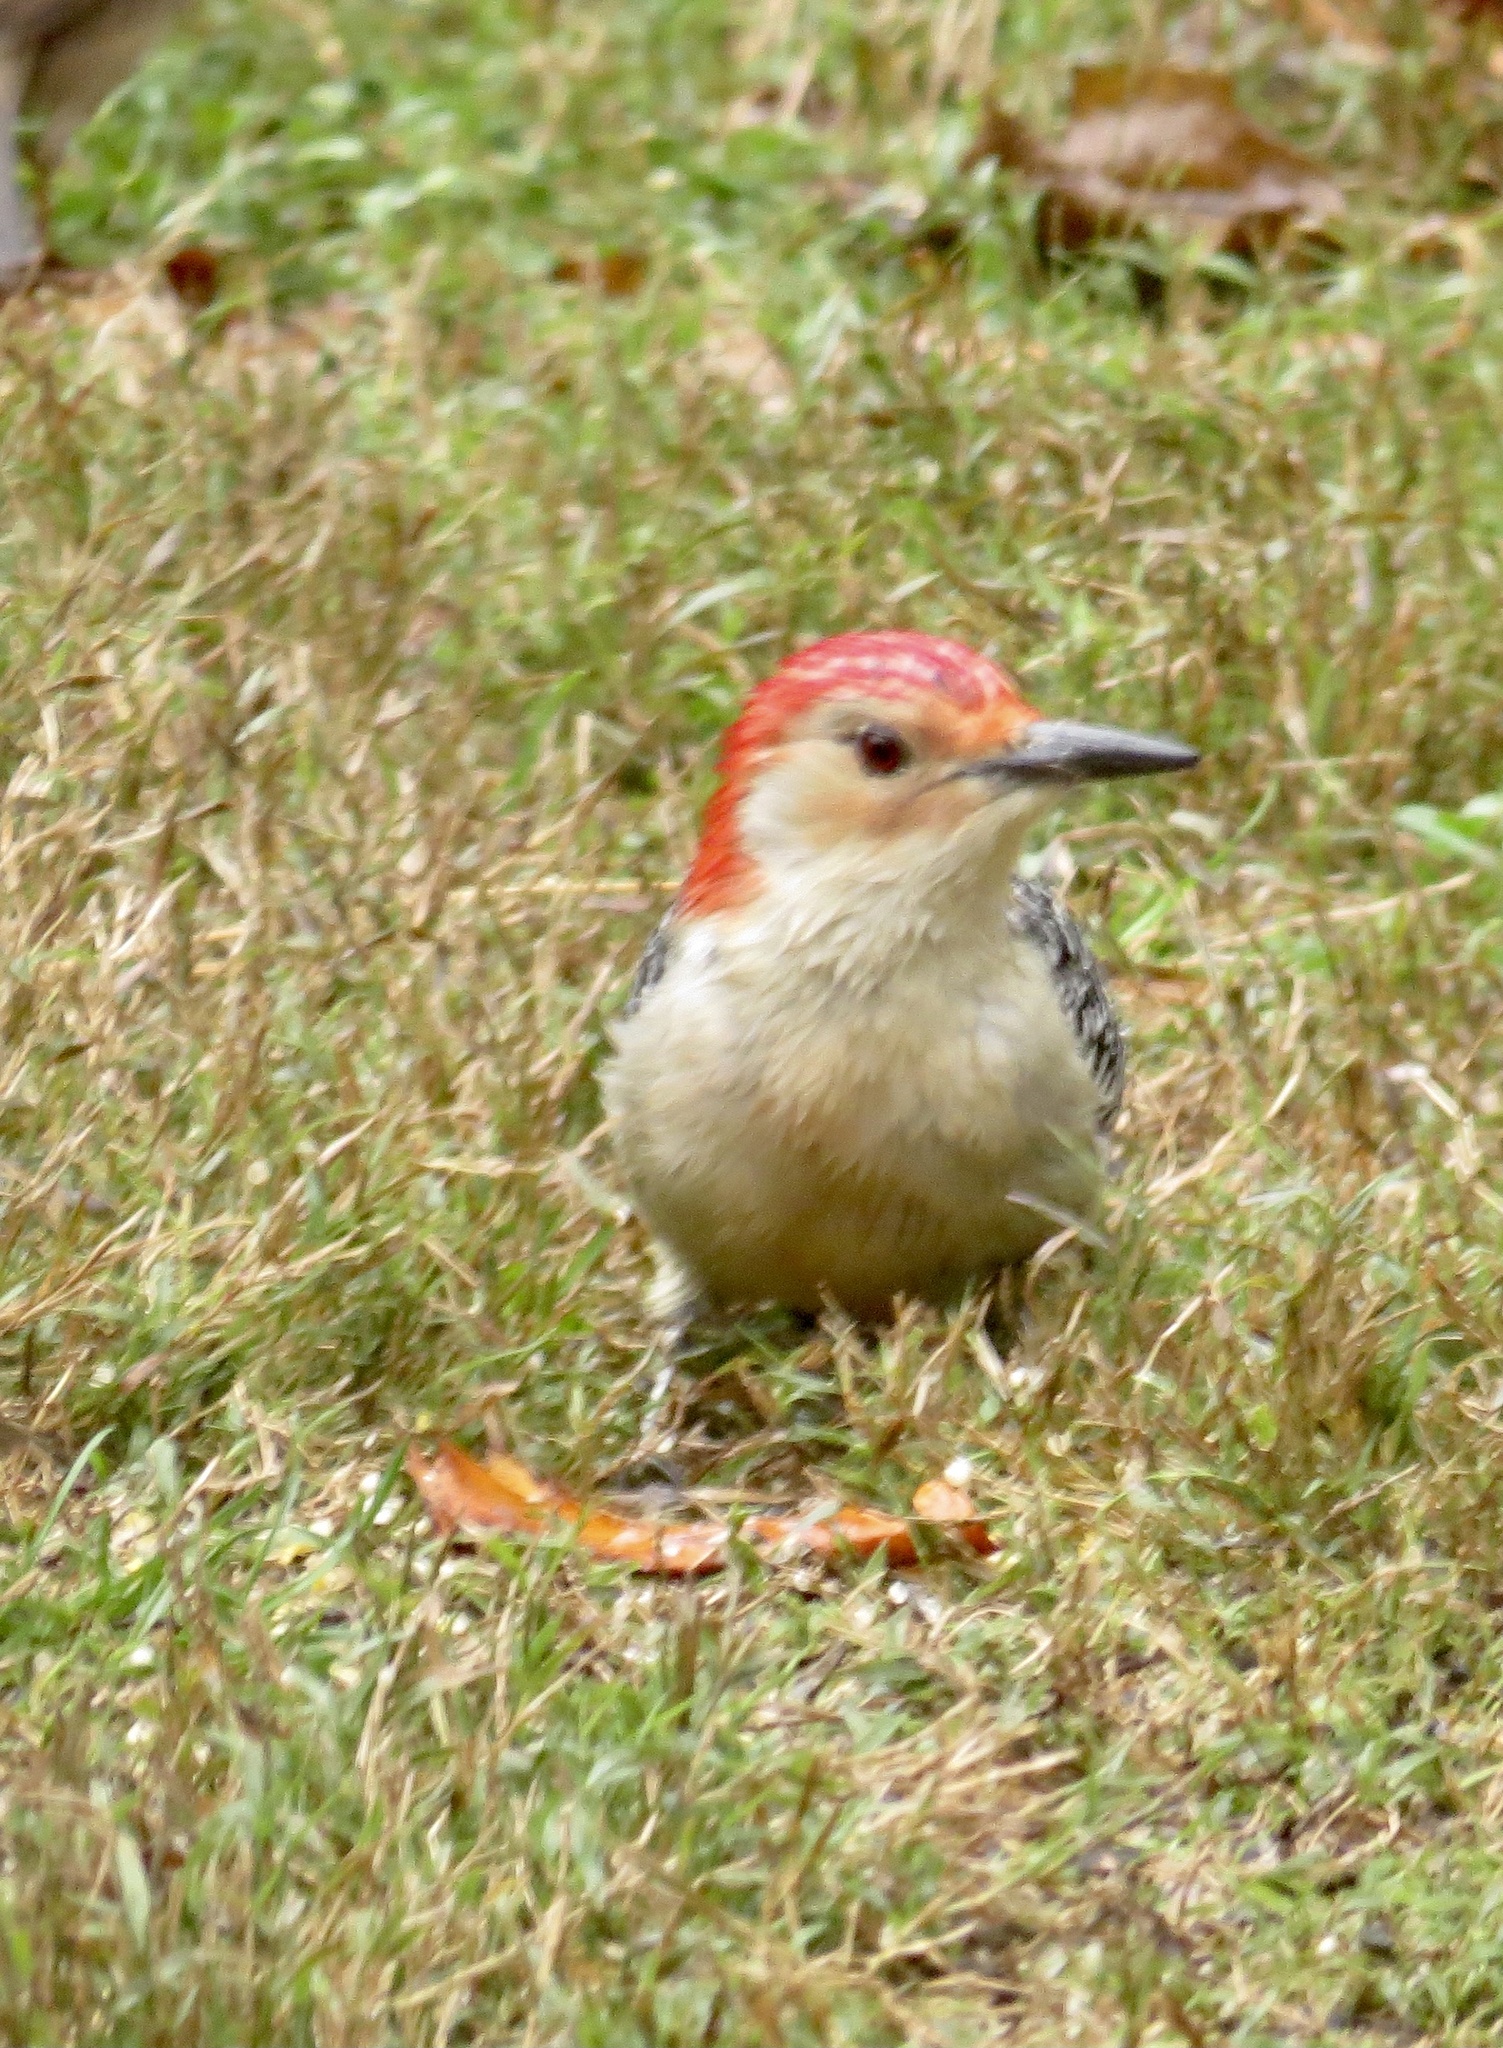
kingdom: Animalia
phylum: Chordata
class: Aves
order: Piciformes
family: Picidae
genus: Melanerpes
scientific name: Melanerpes carolinus
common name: Red-bellied woodpecker
